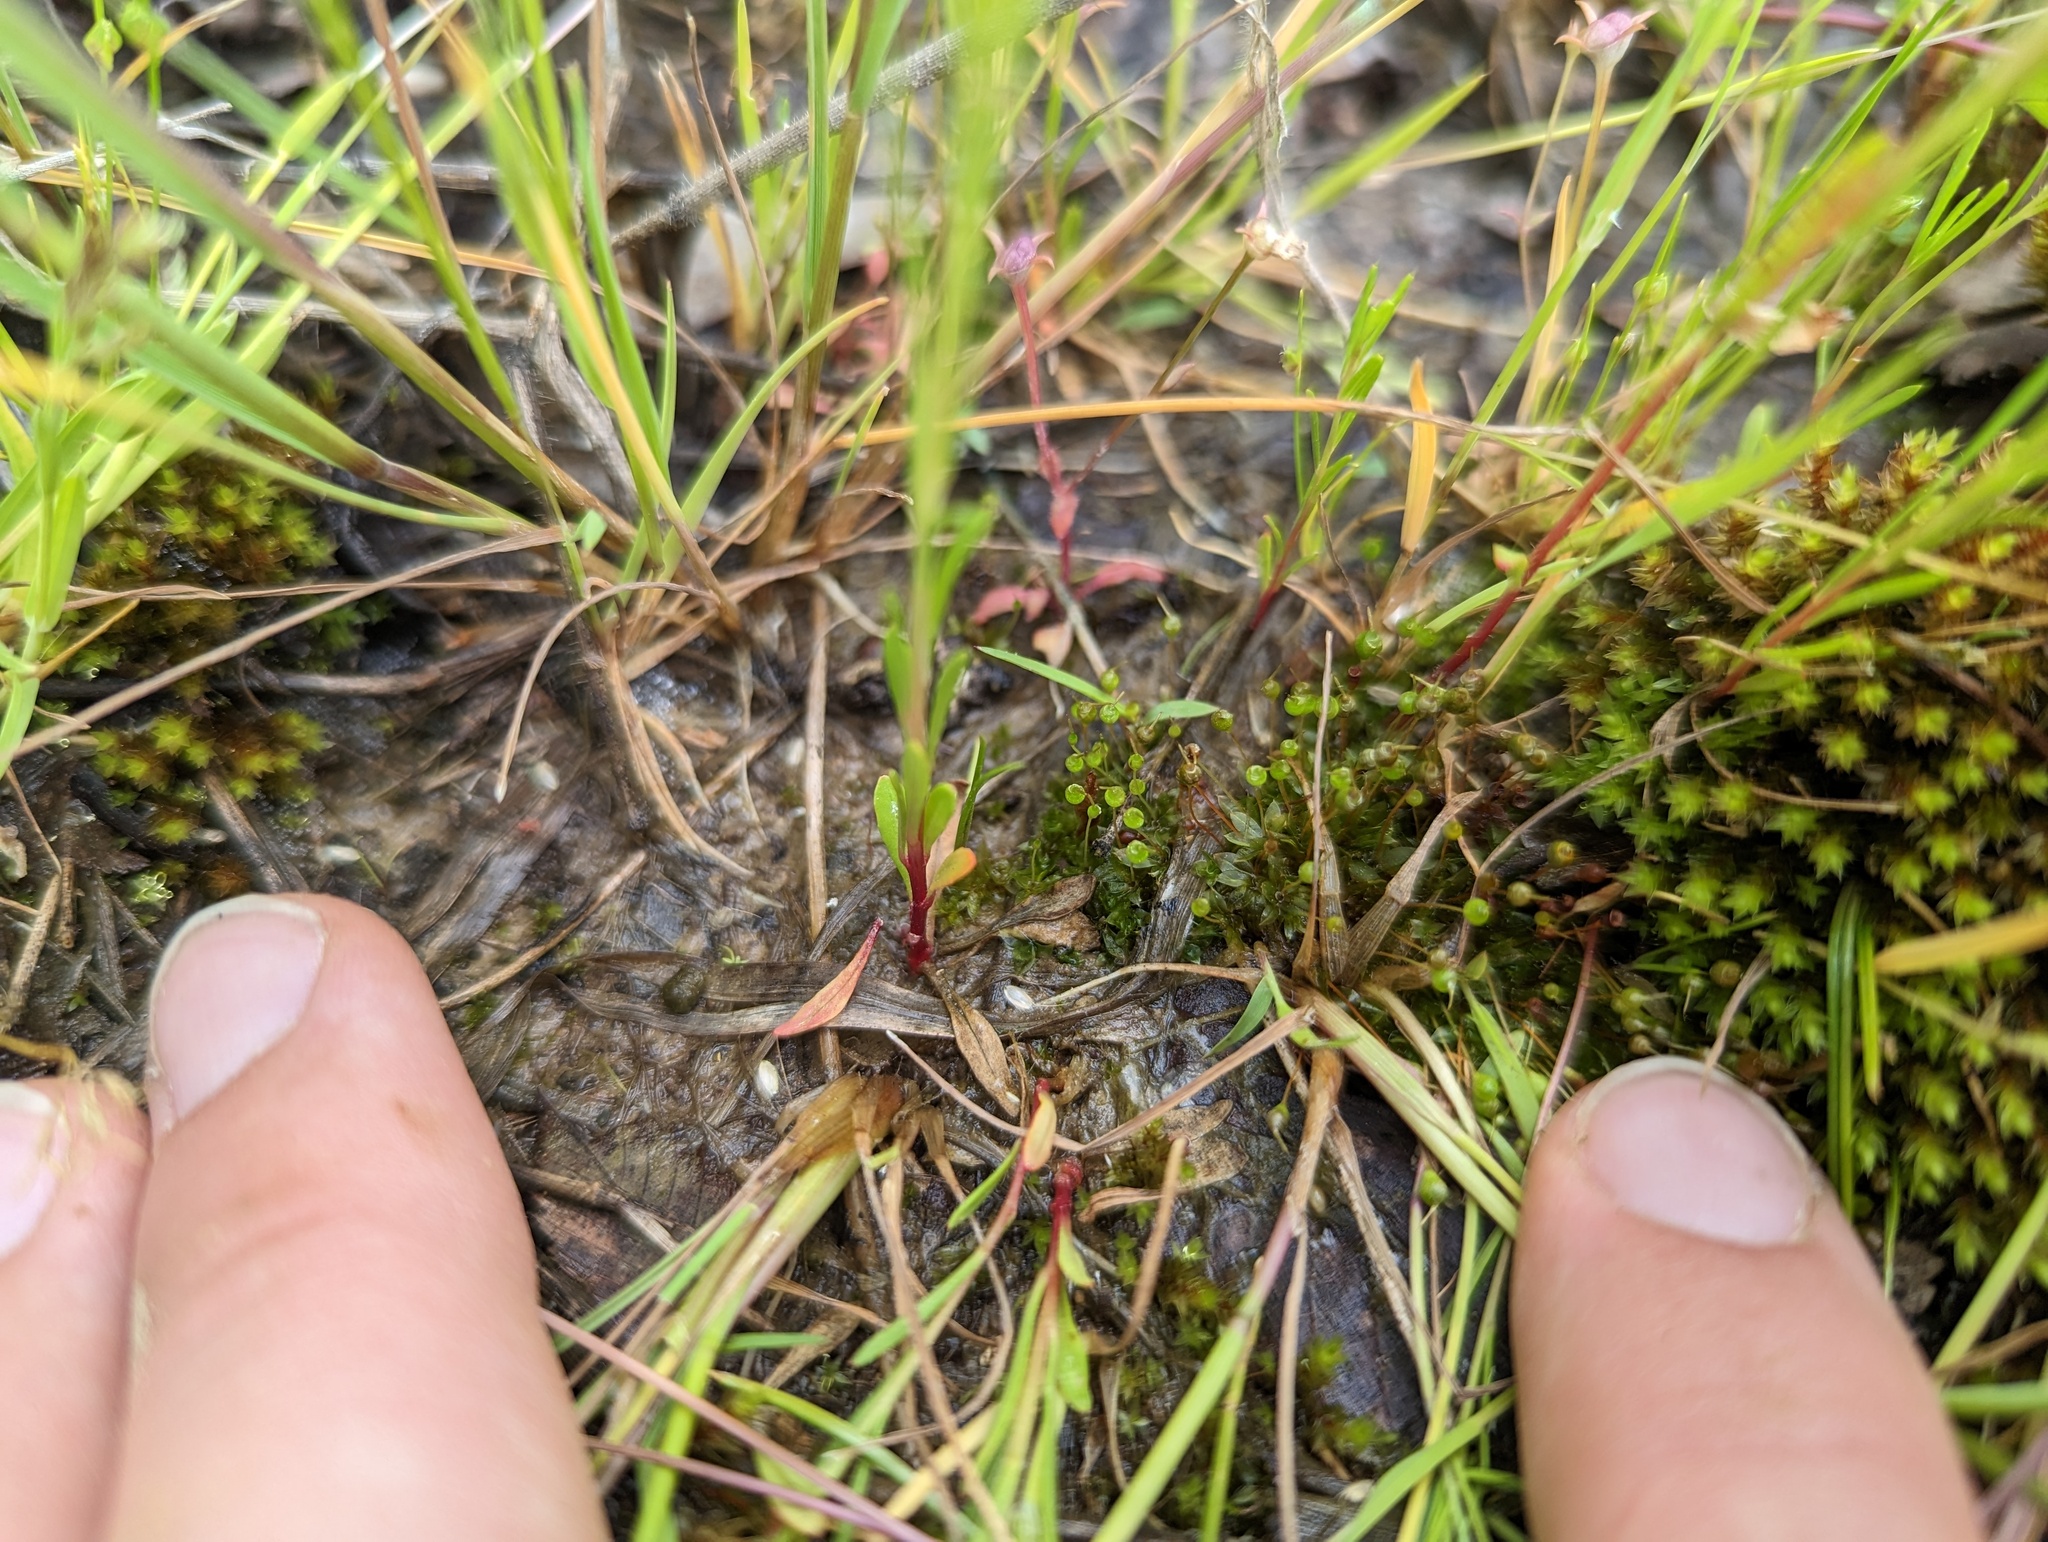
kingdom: Plantae
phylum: Bryophyta
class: Bryopsida
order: Funariales
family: Funariaceae
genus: Physcomitrium
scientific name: Physcomitrium pyriforme
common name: Common bladder-moss
